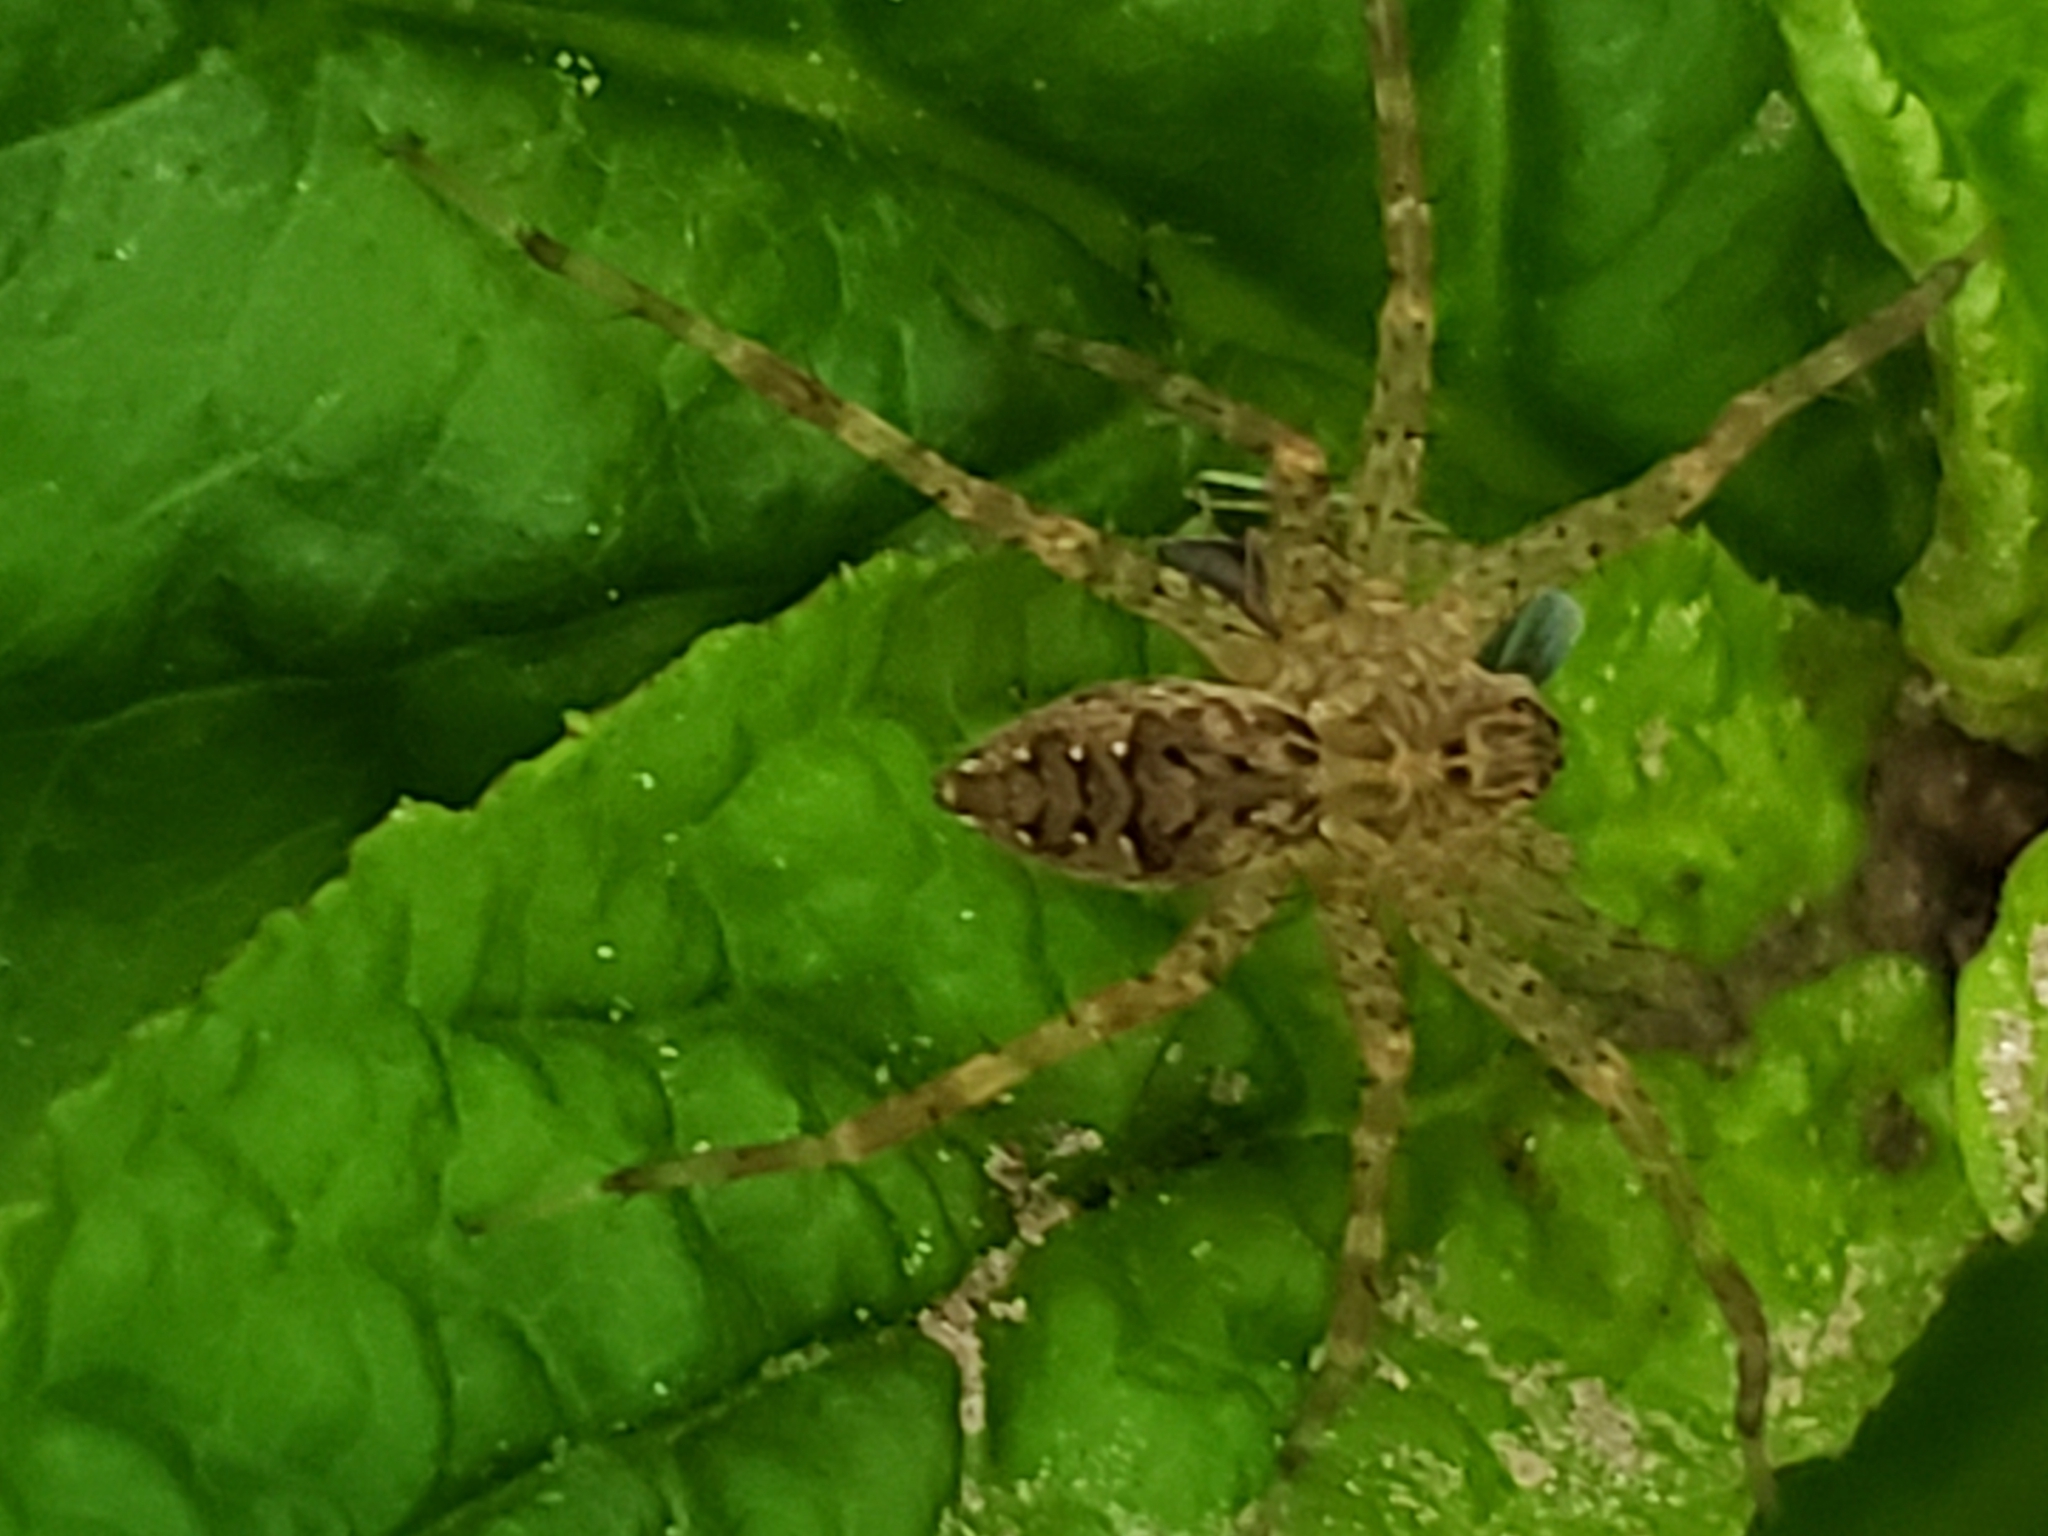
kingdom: Animalia
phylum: Arthropoda
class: Arachnida
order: Araneae
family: Pisauridae
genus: Dolomedes
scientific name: Dolomedes vittatus
